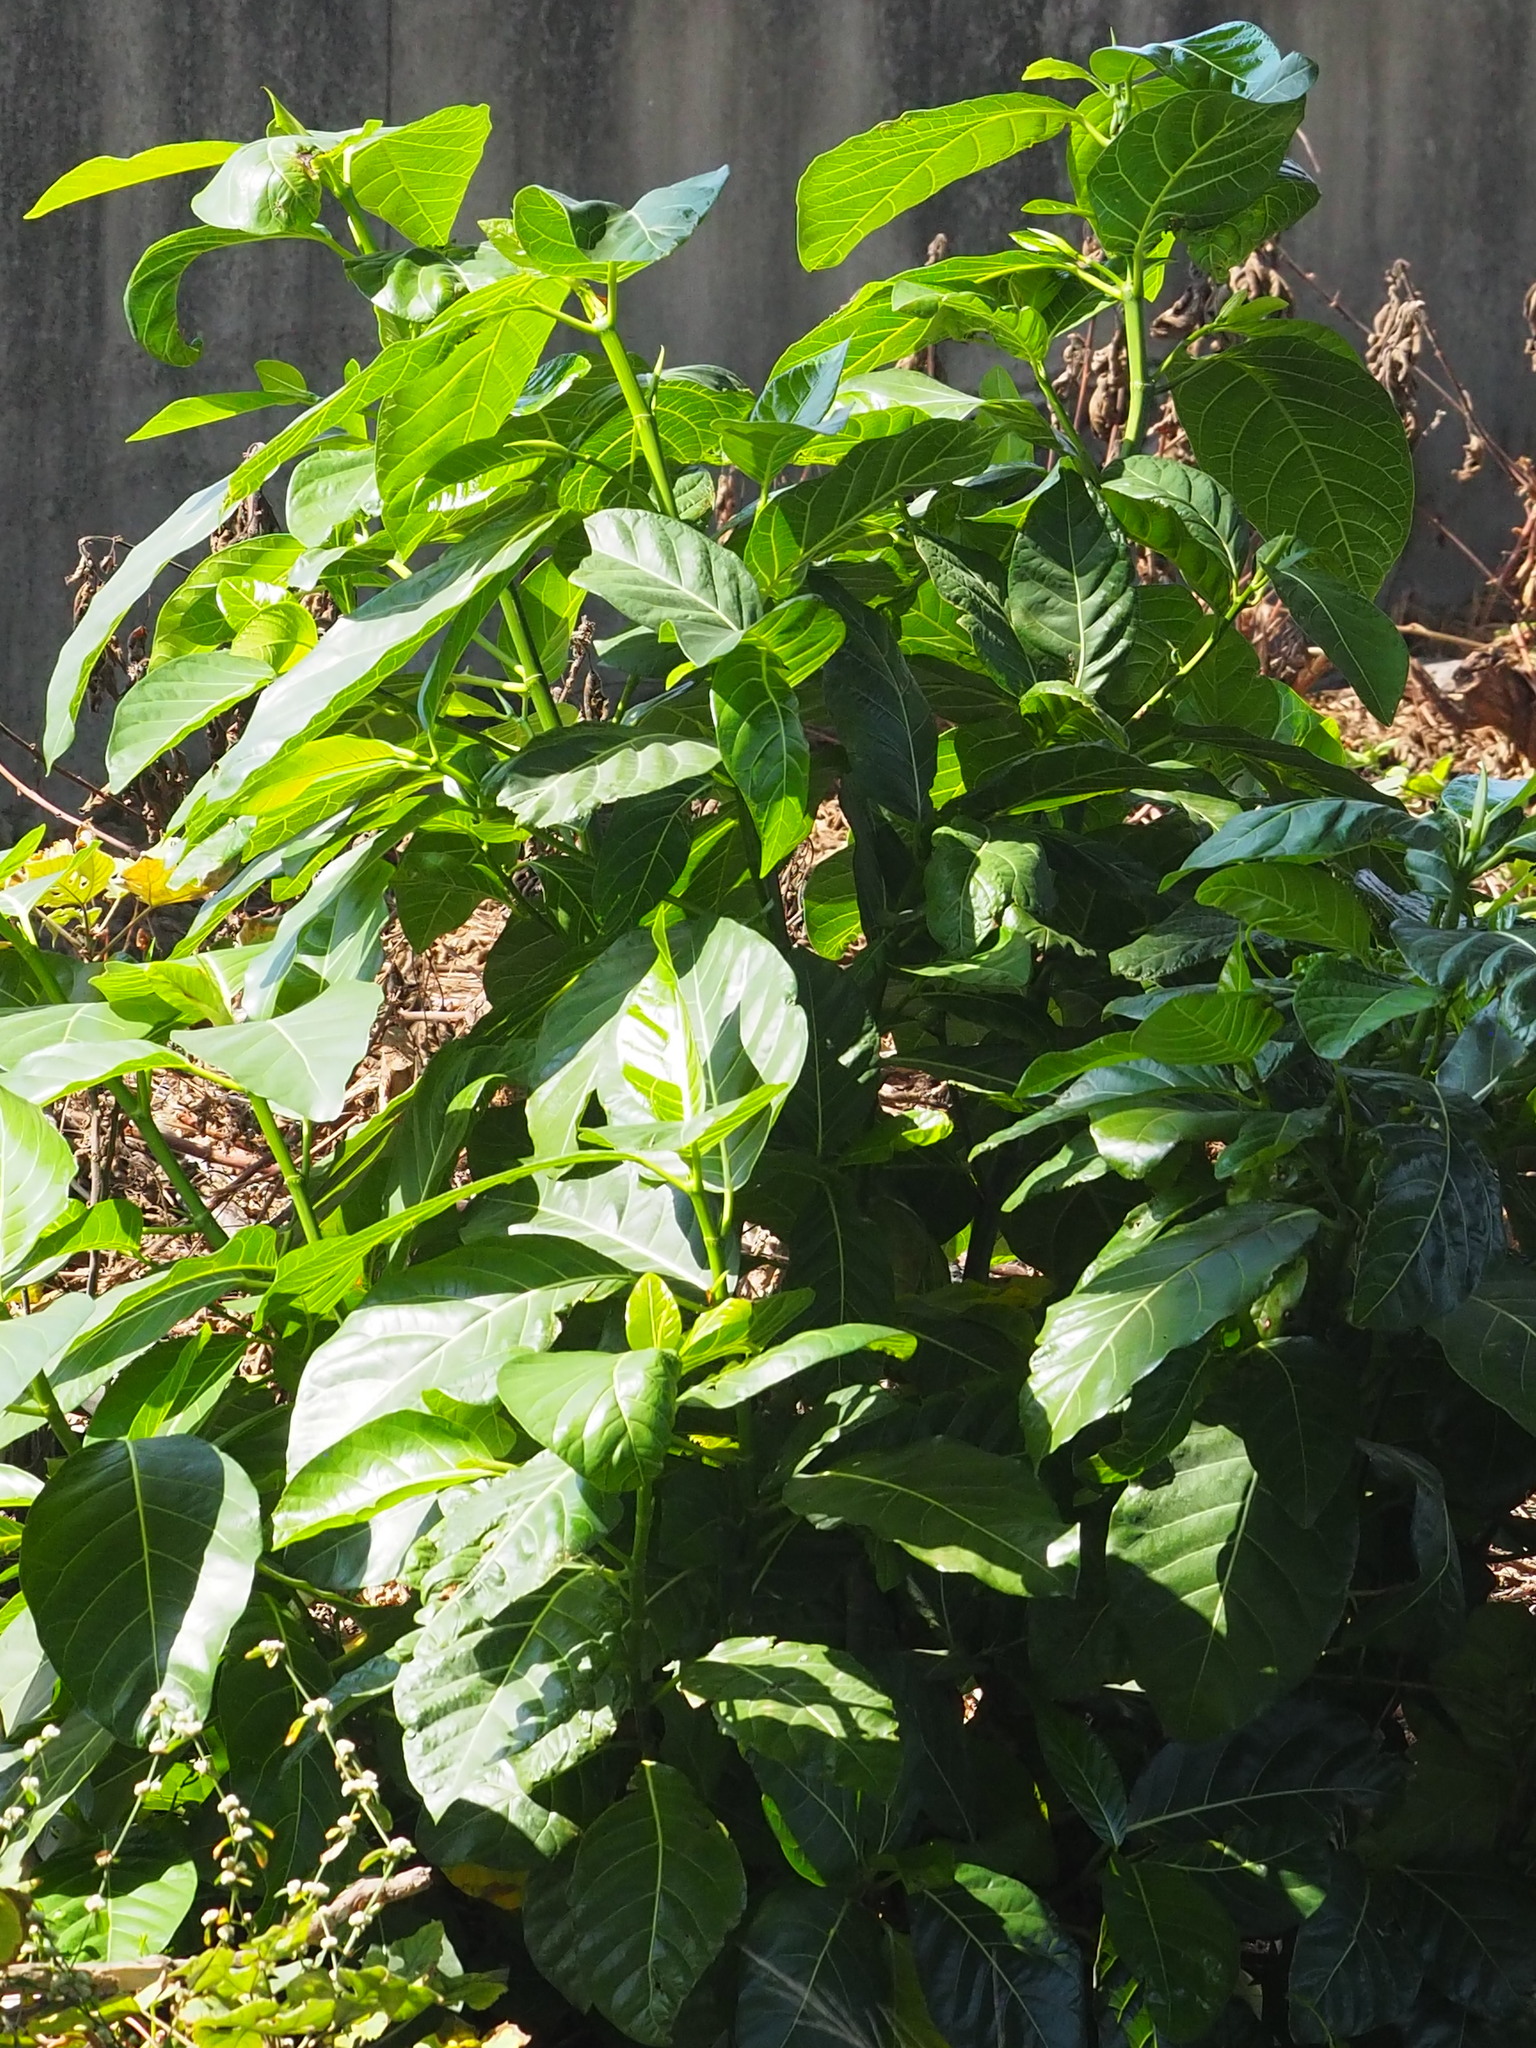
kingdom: Plantae
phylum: Tracheophyta
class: Magnoliopsida
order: Rosales
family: Moraceae
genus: Ficus
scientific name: Ficus septica
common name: Septic fig
